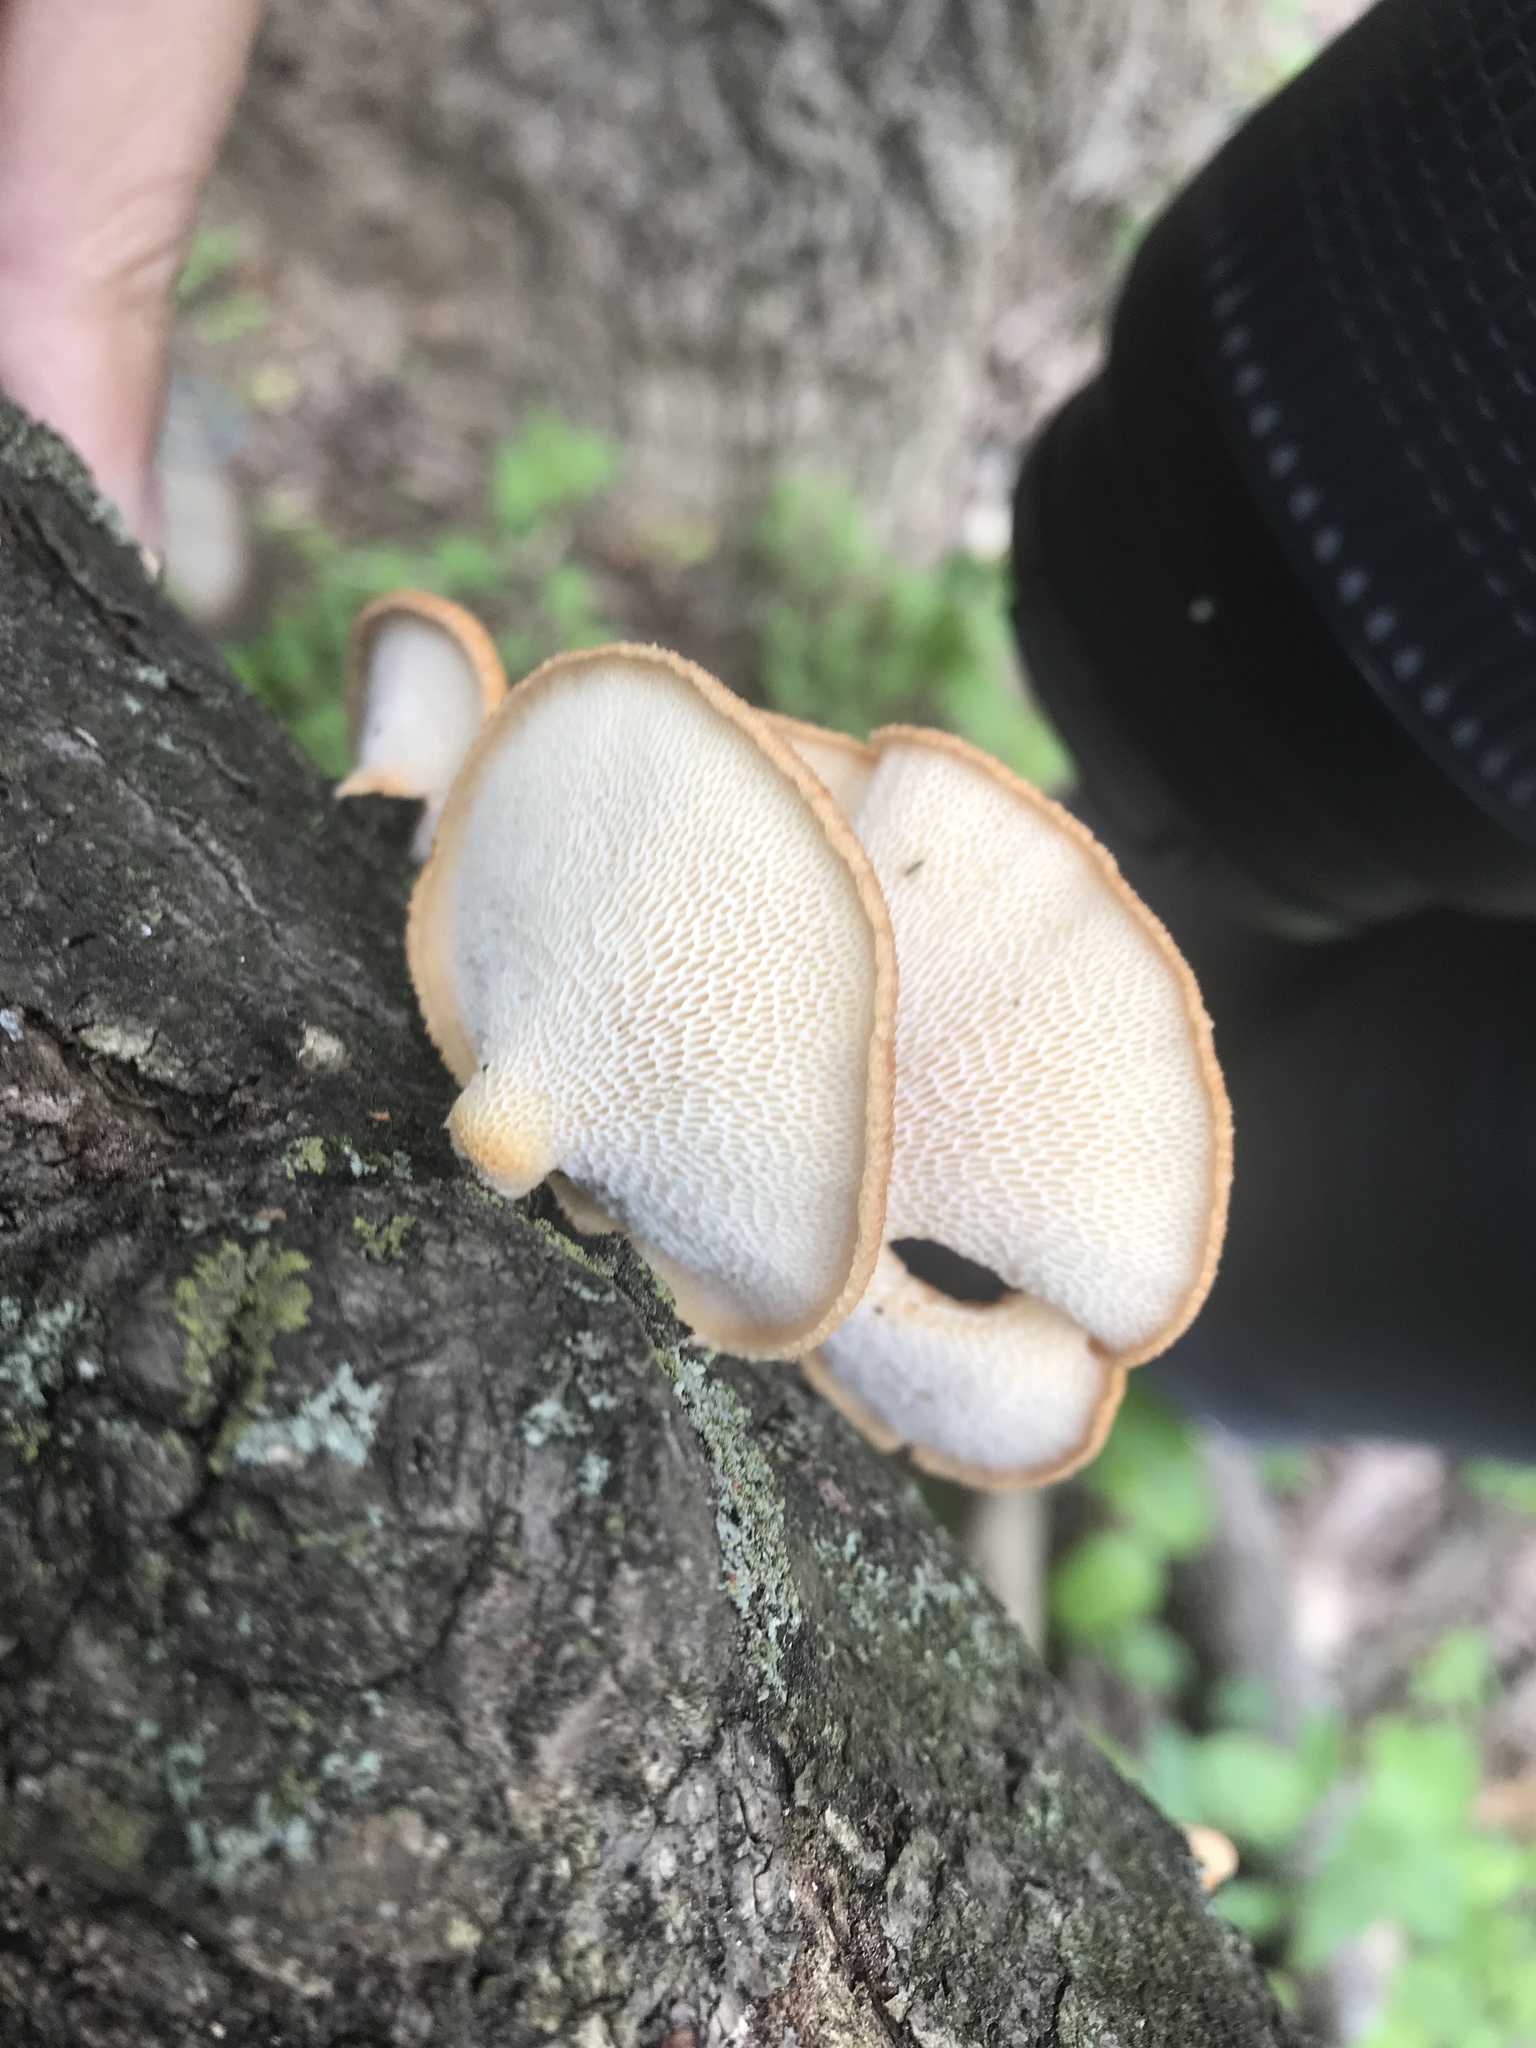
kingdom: Fungi
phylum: Basidiomycota
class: Agaricomycetes
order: Polyporales
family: Polyporaceae
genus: Neofavolus
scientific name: Neofavolus alveolaris
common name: Hexagonal-pored polypore
